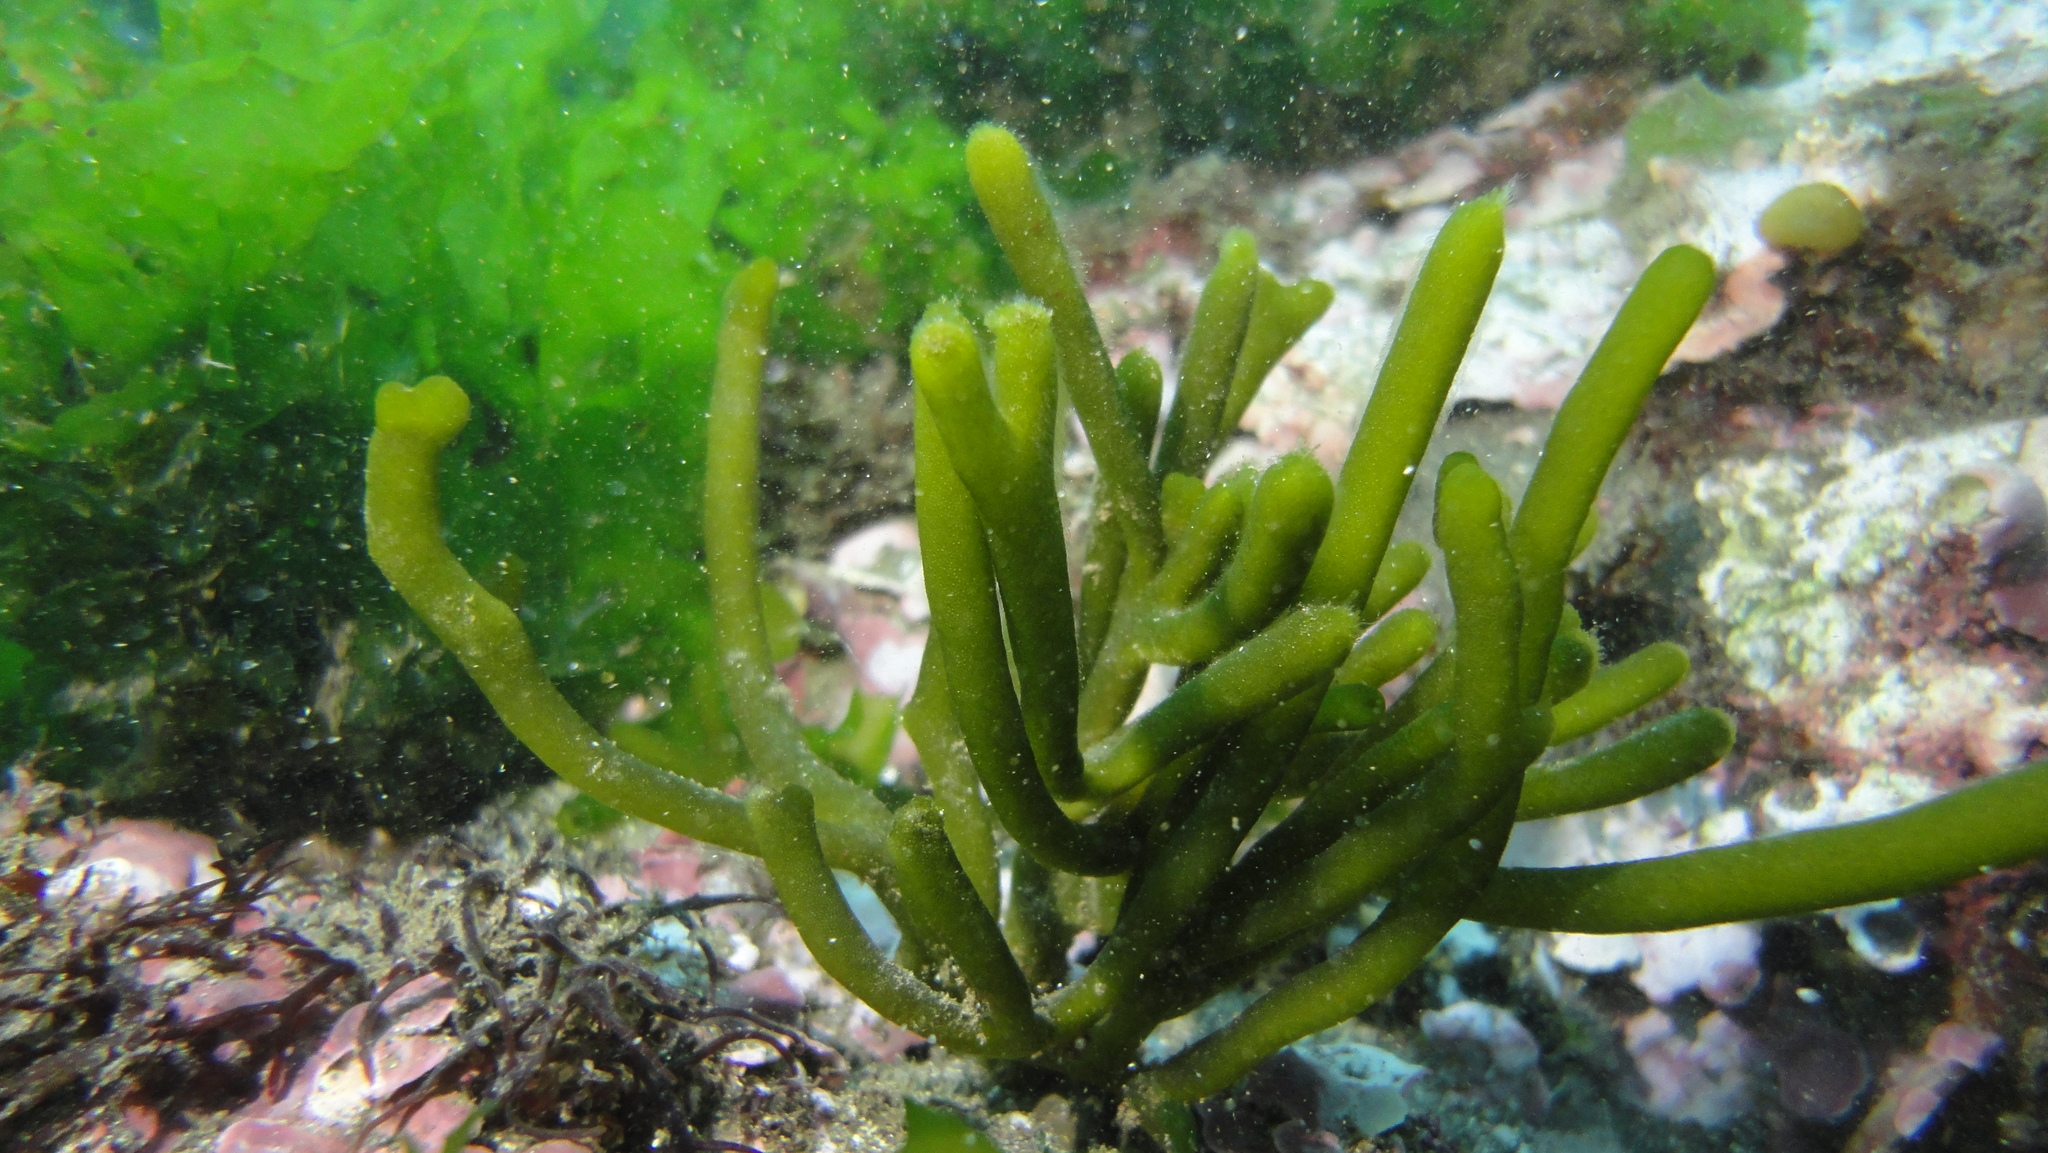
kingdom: Plantae
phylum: Chlorophyta
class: Ulvophyceae
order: Bryopsidales
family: Codiaceae
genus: Codium
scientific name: Codium
